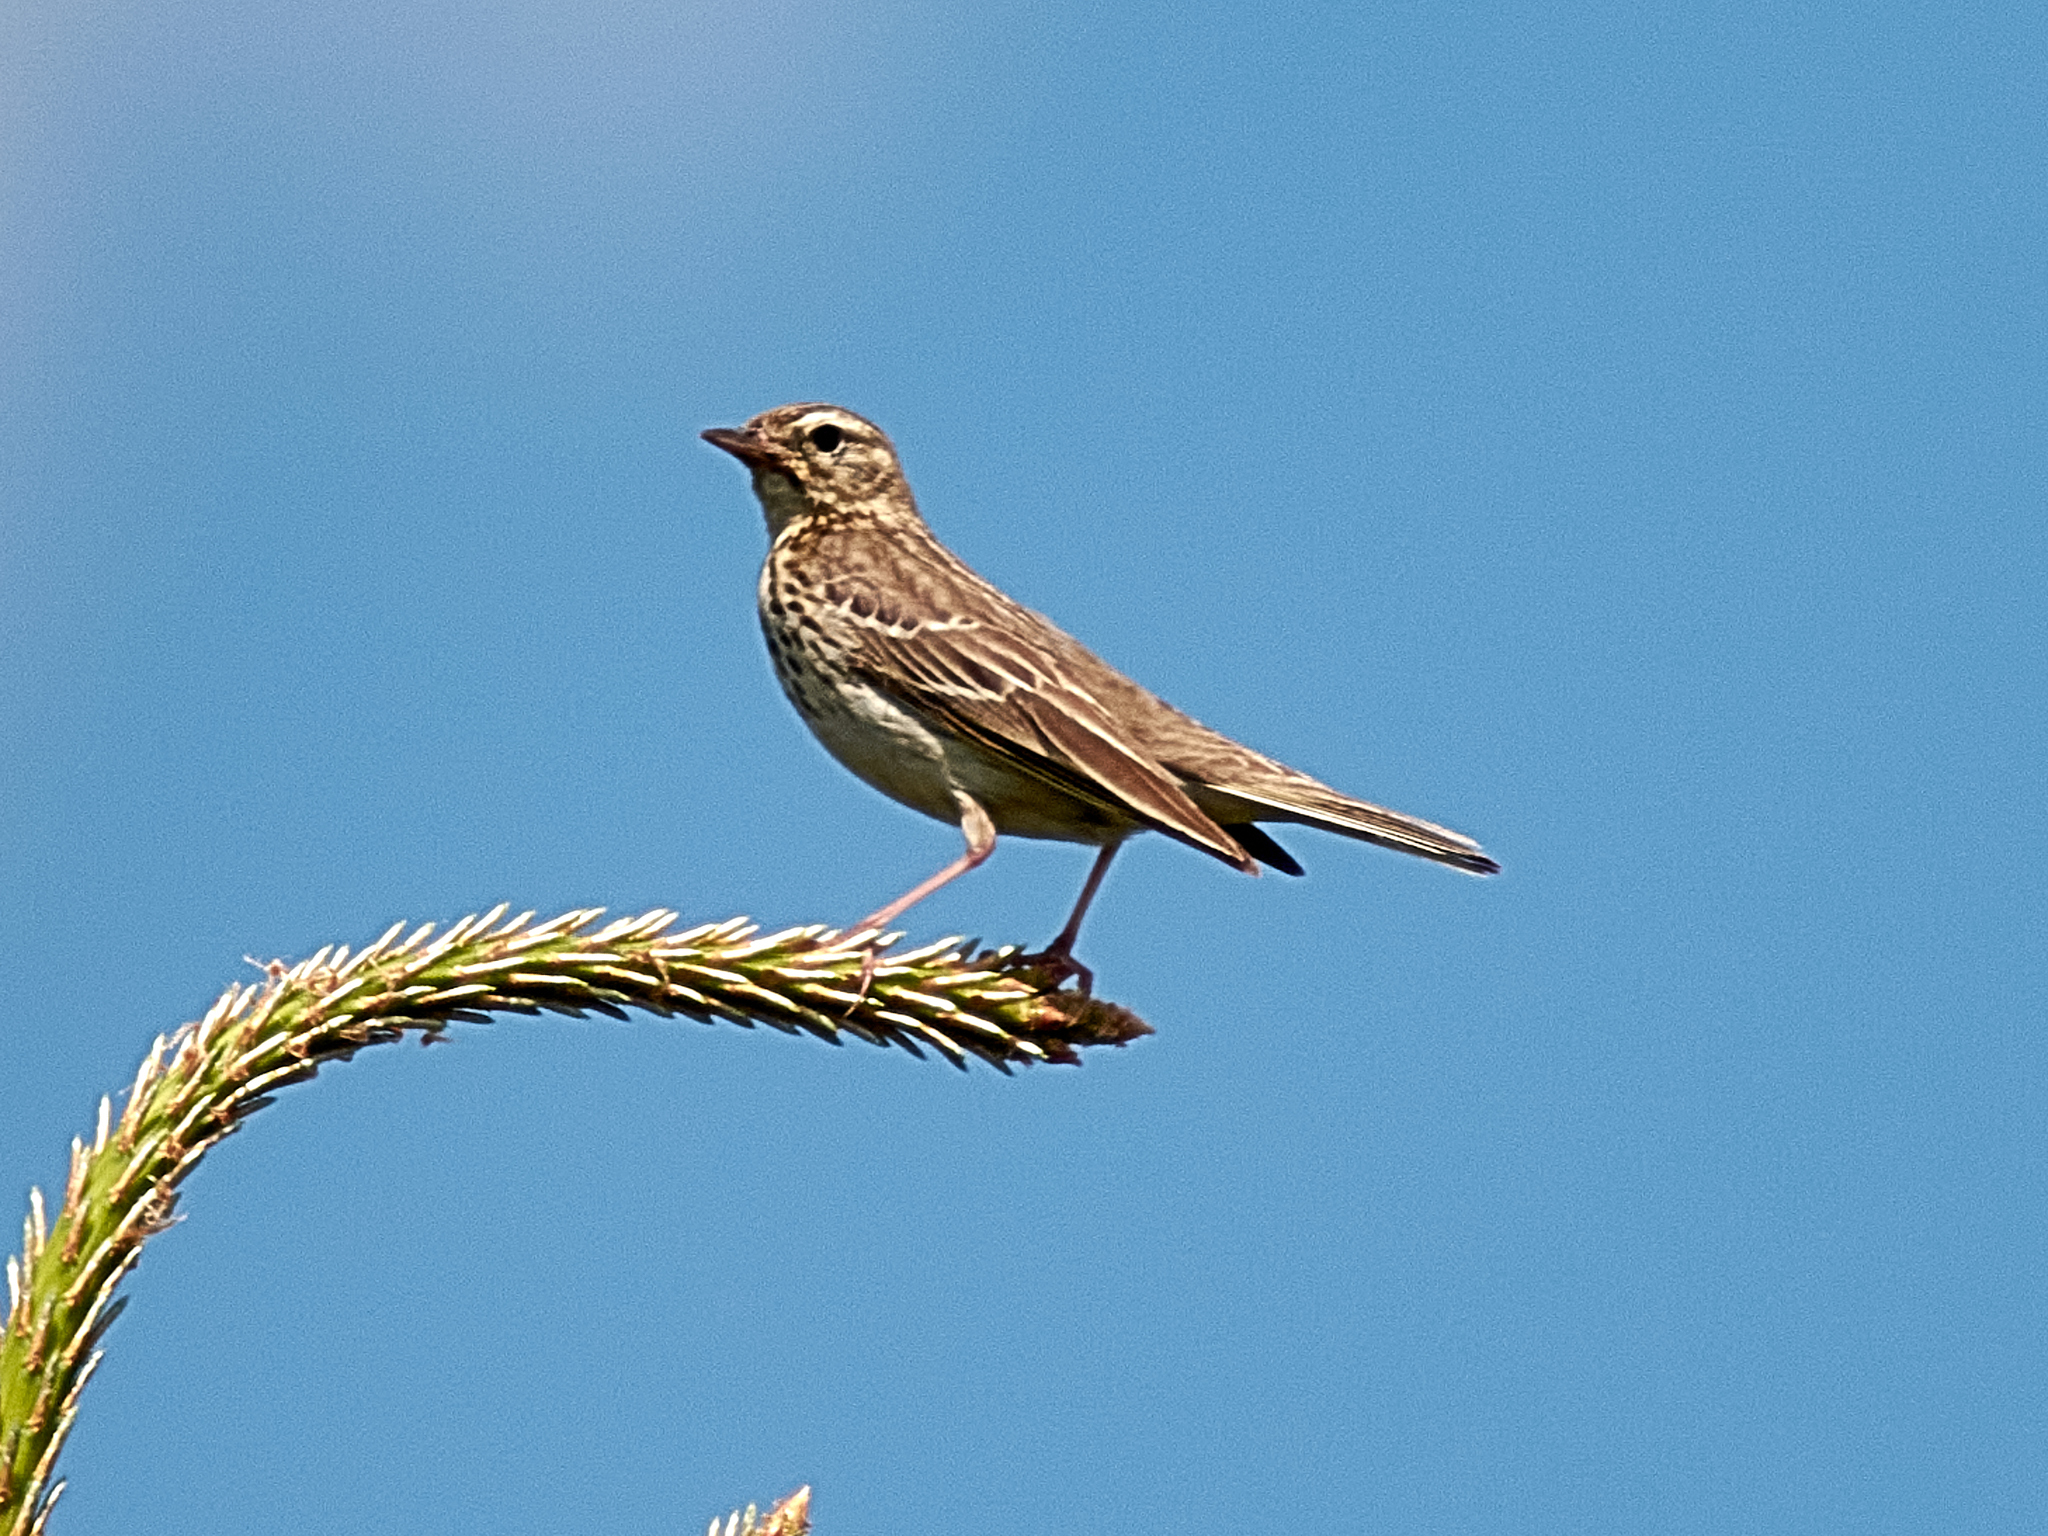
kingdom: Animalia
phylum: Chordata
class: Aves
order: Passeriformes
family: Motacillidae
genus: Anthus
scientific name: Anthus trivialis
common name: Tree pipit
